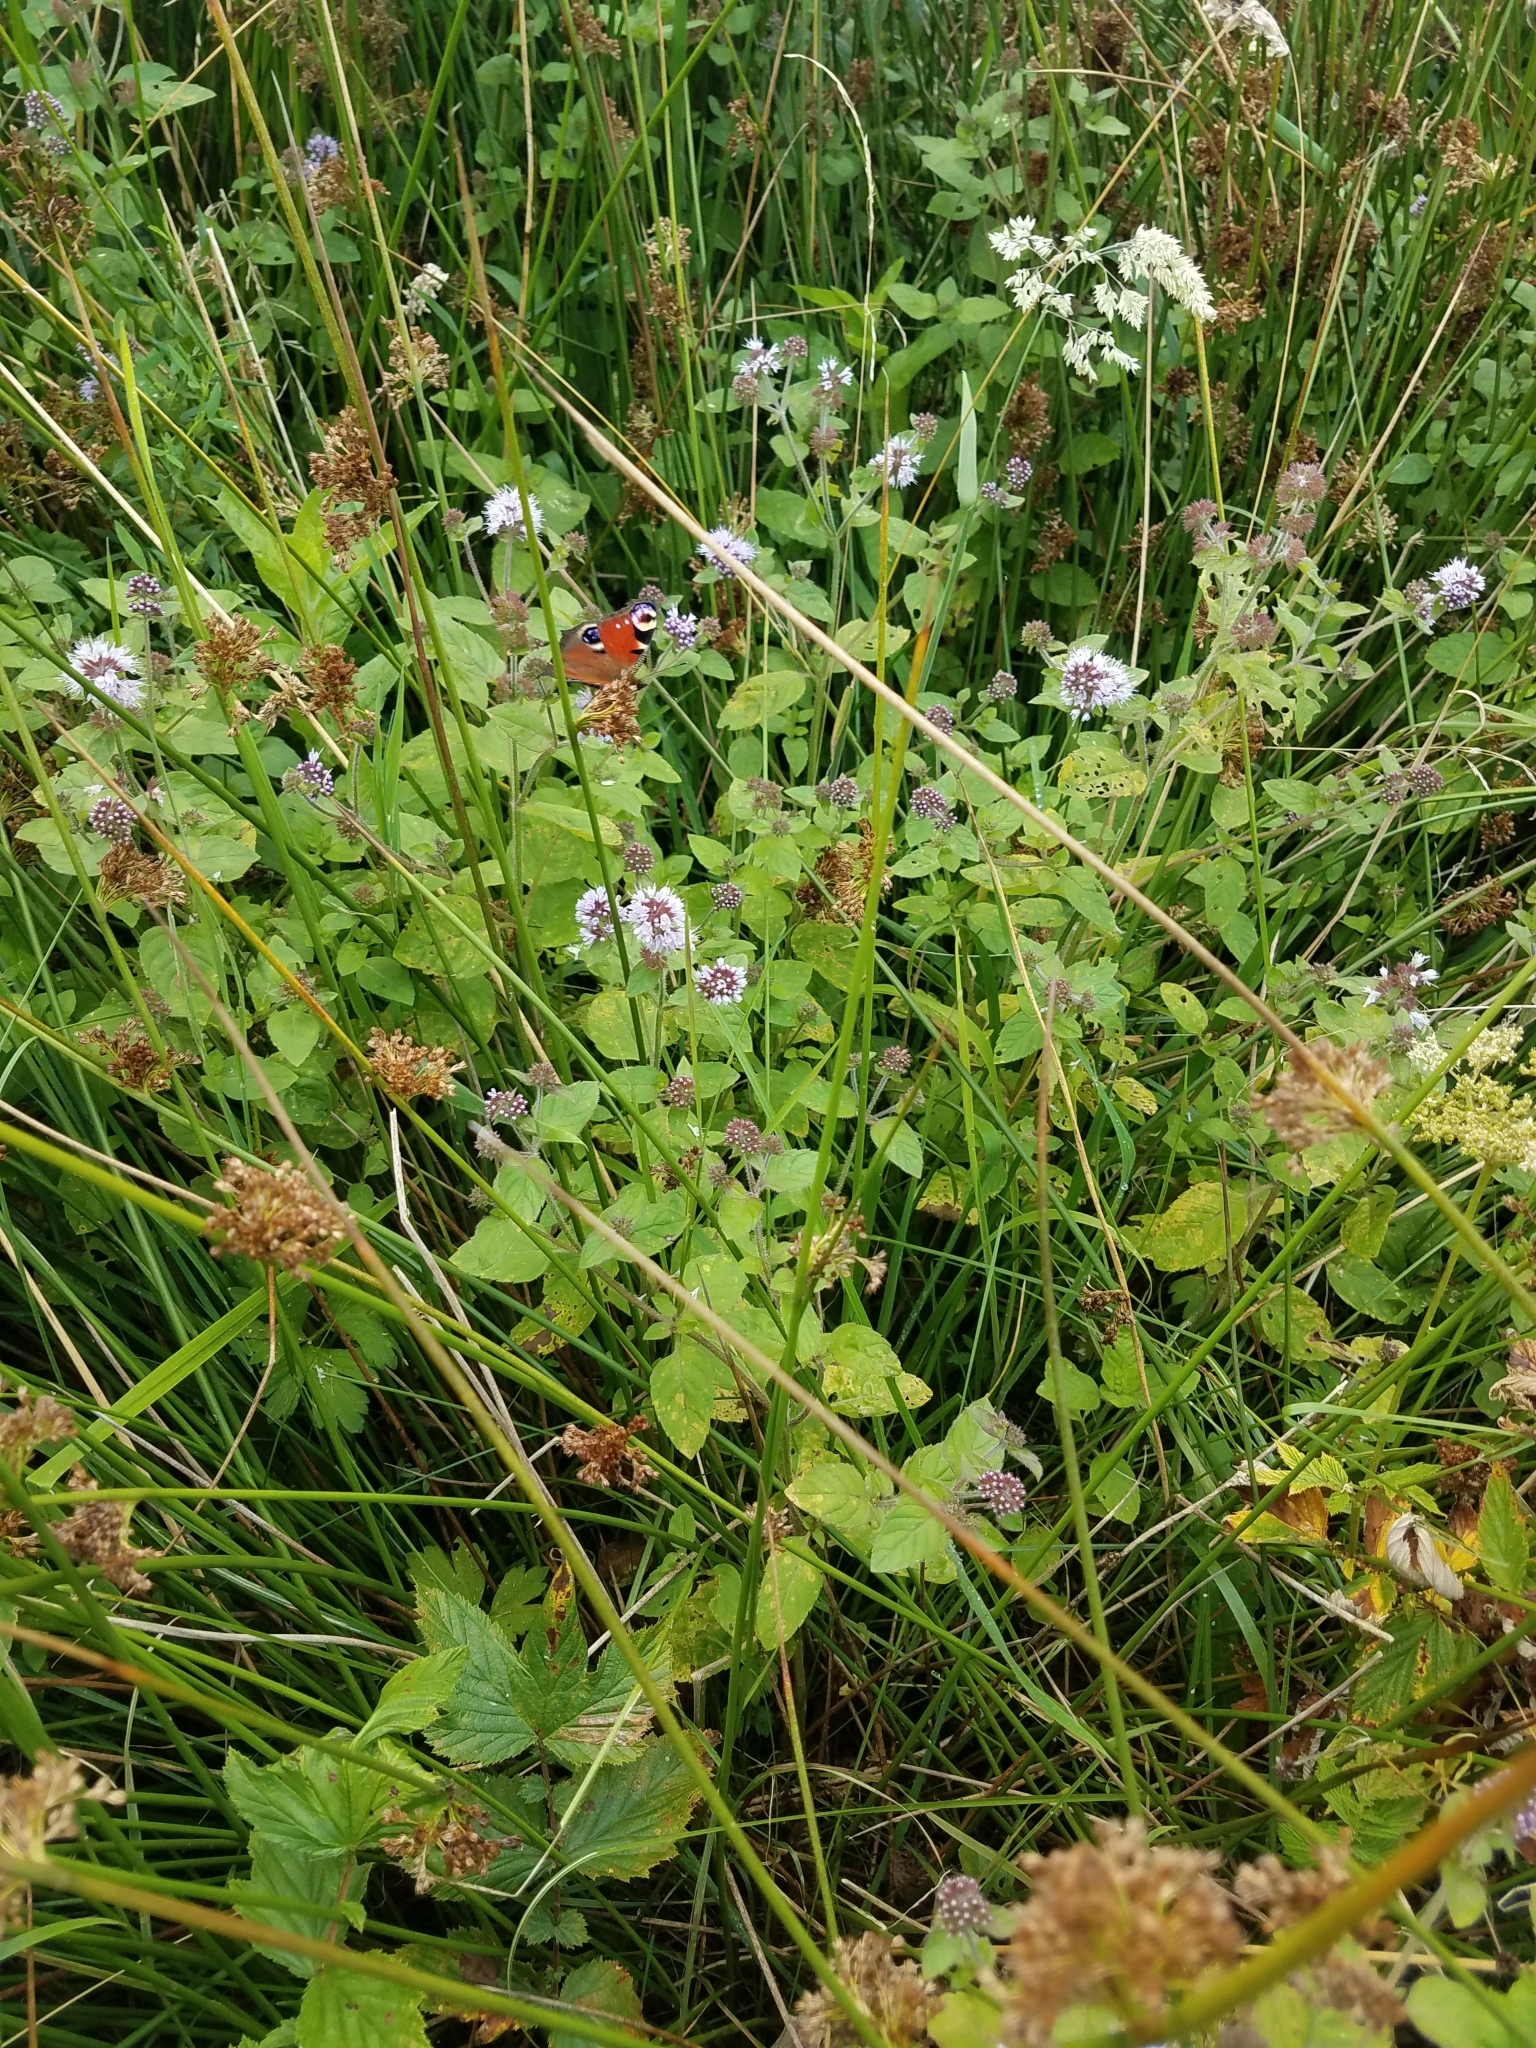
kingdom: Animalia
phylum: Arthropoda
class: Insecta
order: Lepidoptera
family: Nymphalidae
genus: Aglais
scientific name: Aglais io
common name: Peacock
